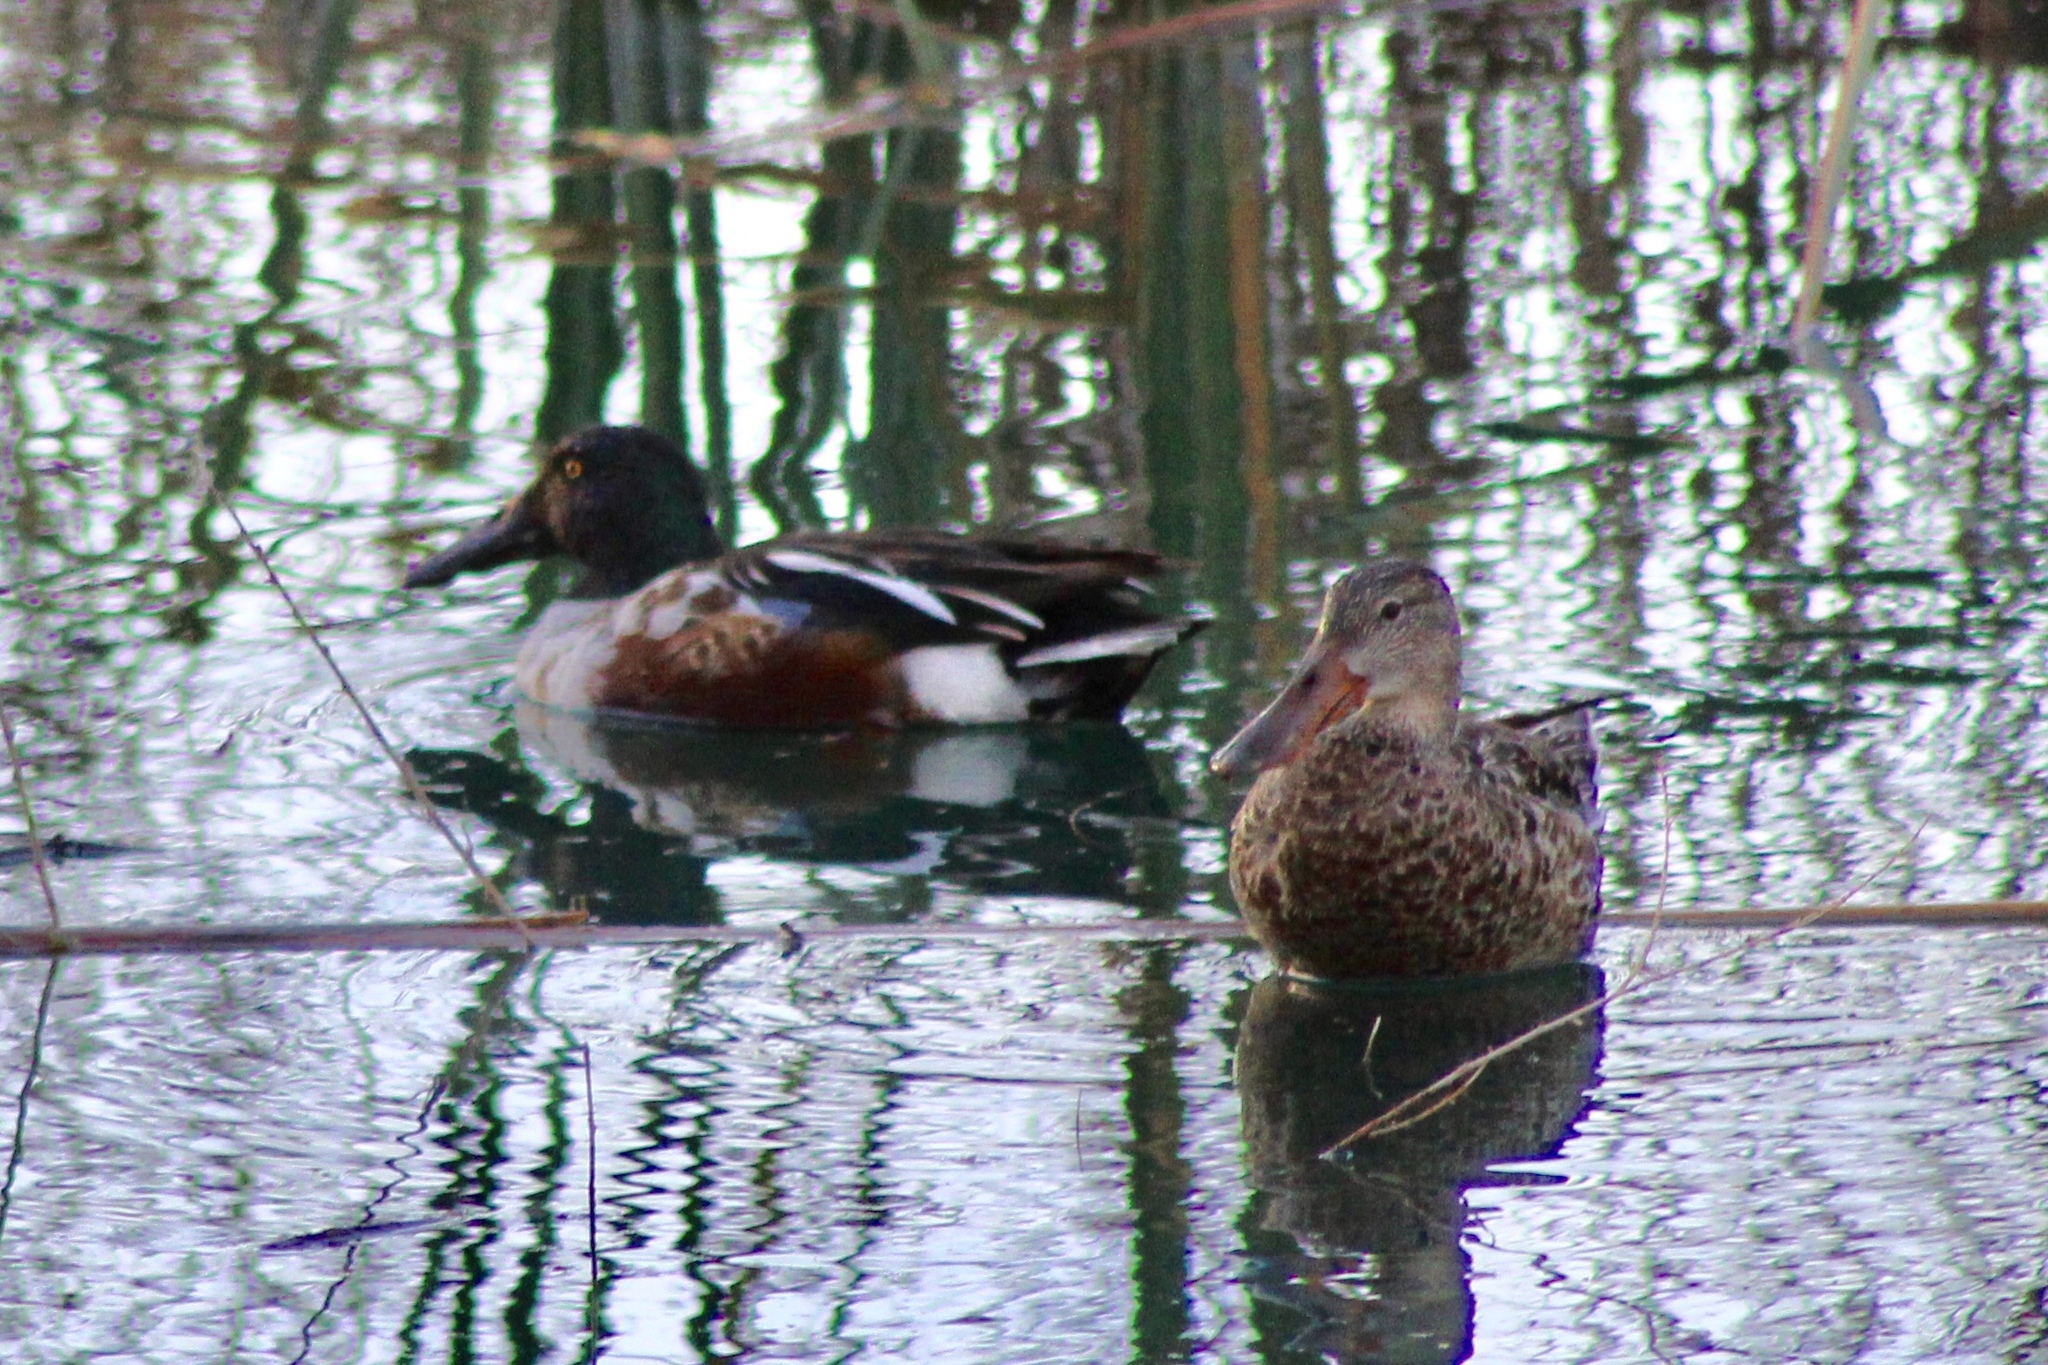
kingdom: Animalia
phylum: Chordata
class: Aves
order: Anseriformes
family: Anatidae
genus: Spatula
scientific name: Spatula clypeata
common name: Northern shoveler
